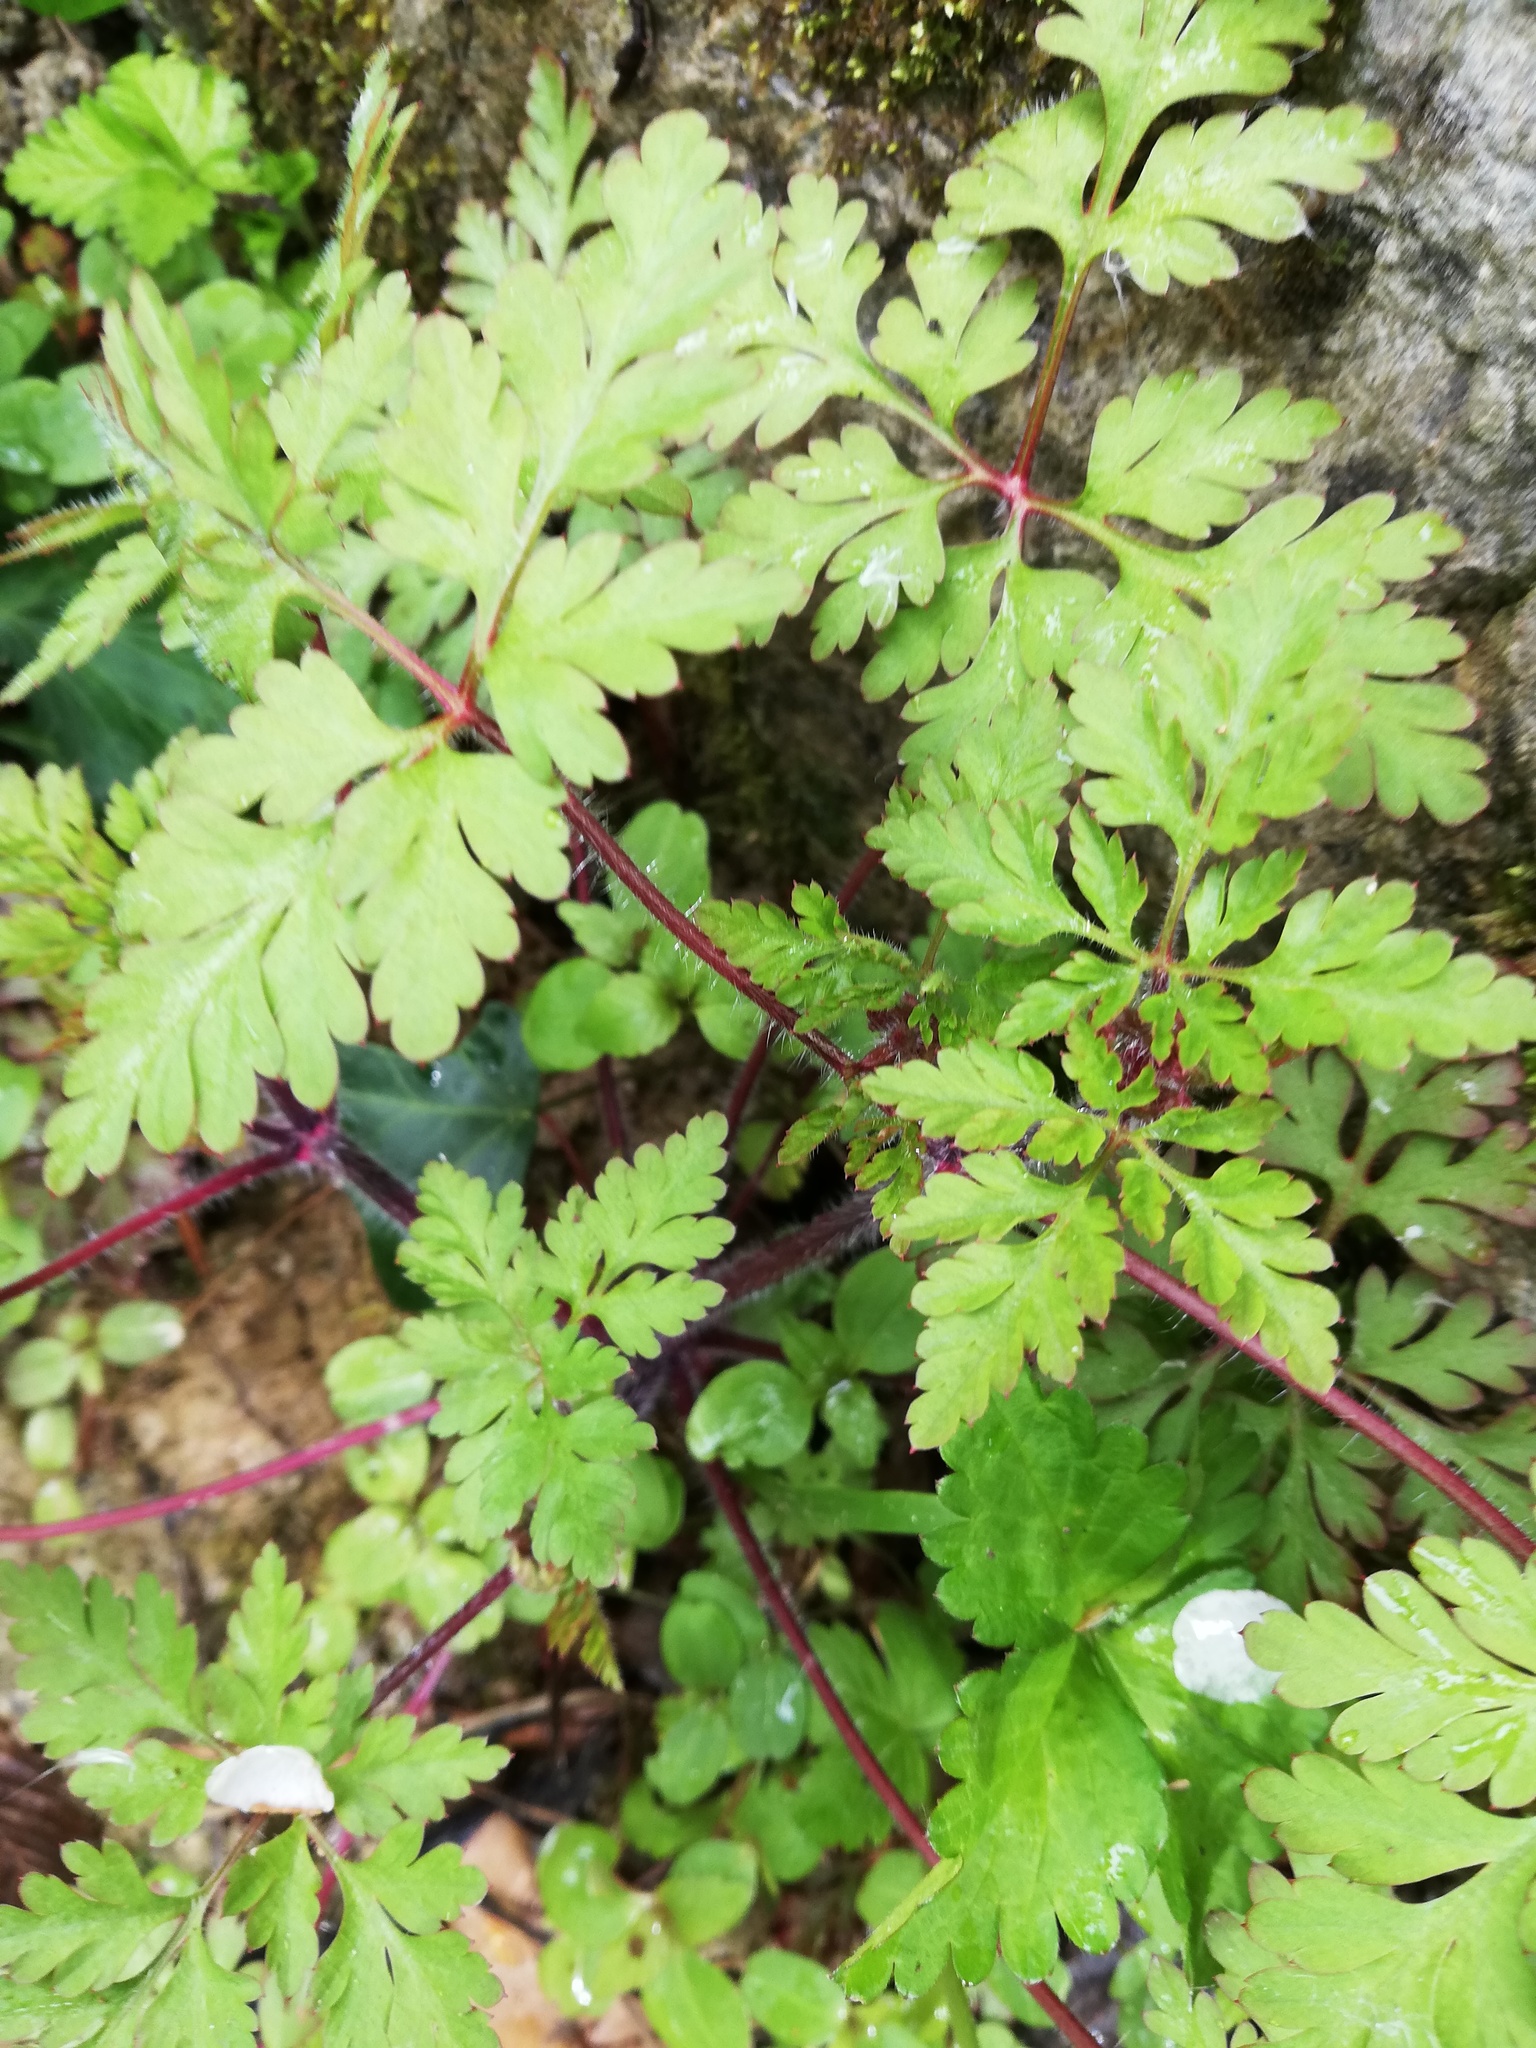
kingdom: Plantae
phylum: Tracheophyta
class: Magnoliopsida
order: Geraniales
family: Geraniaceae
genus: Geranium
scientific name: Geranium robertianum
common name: Herb-robert
